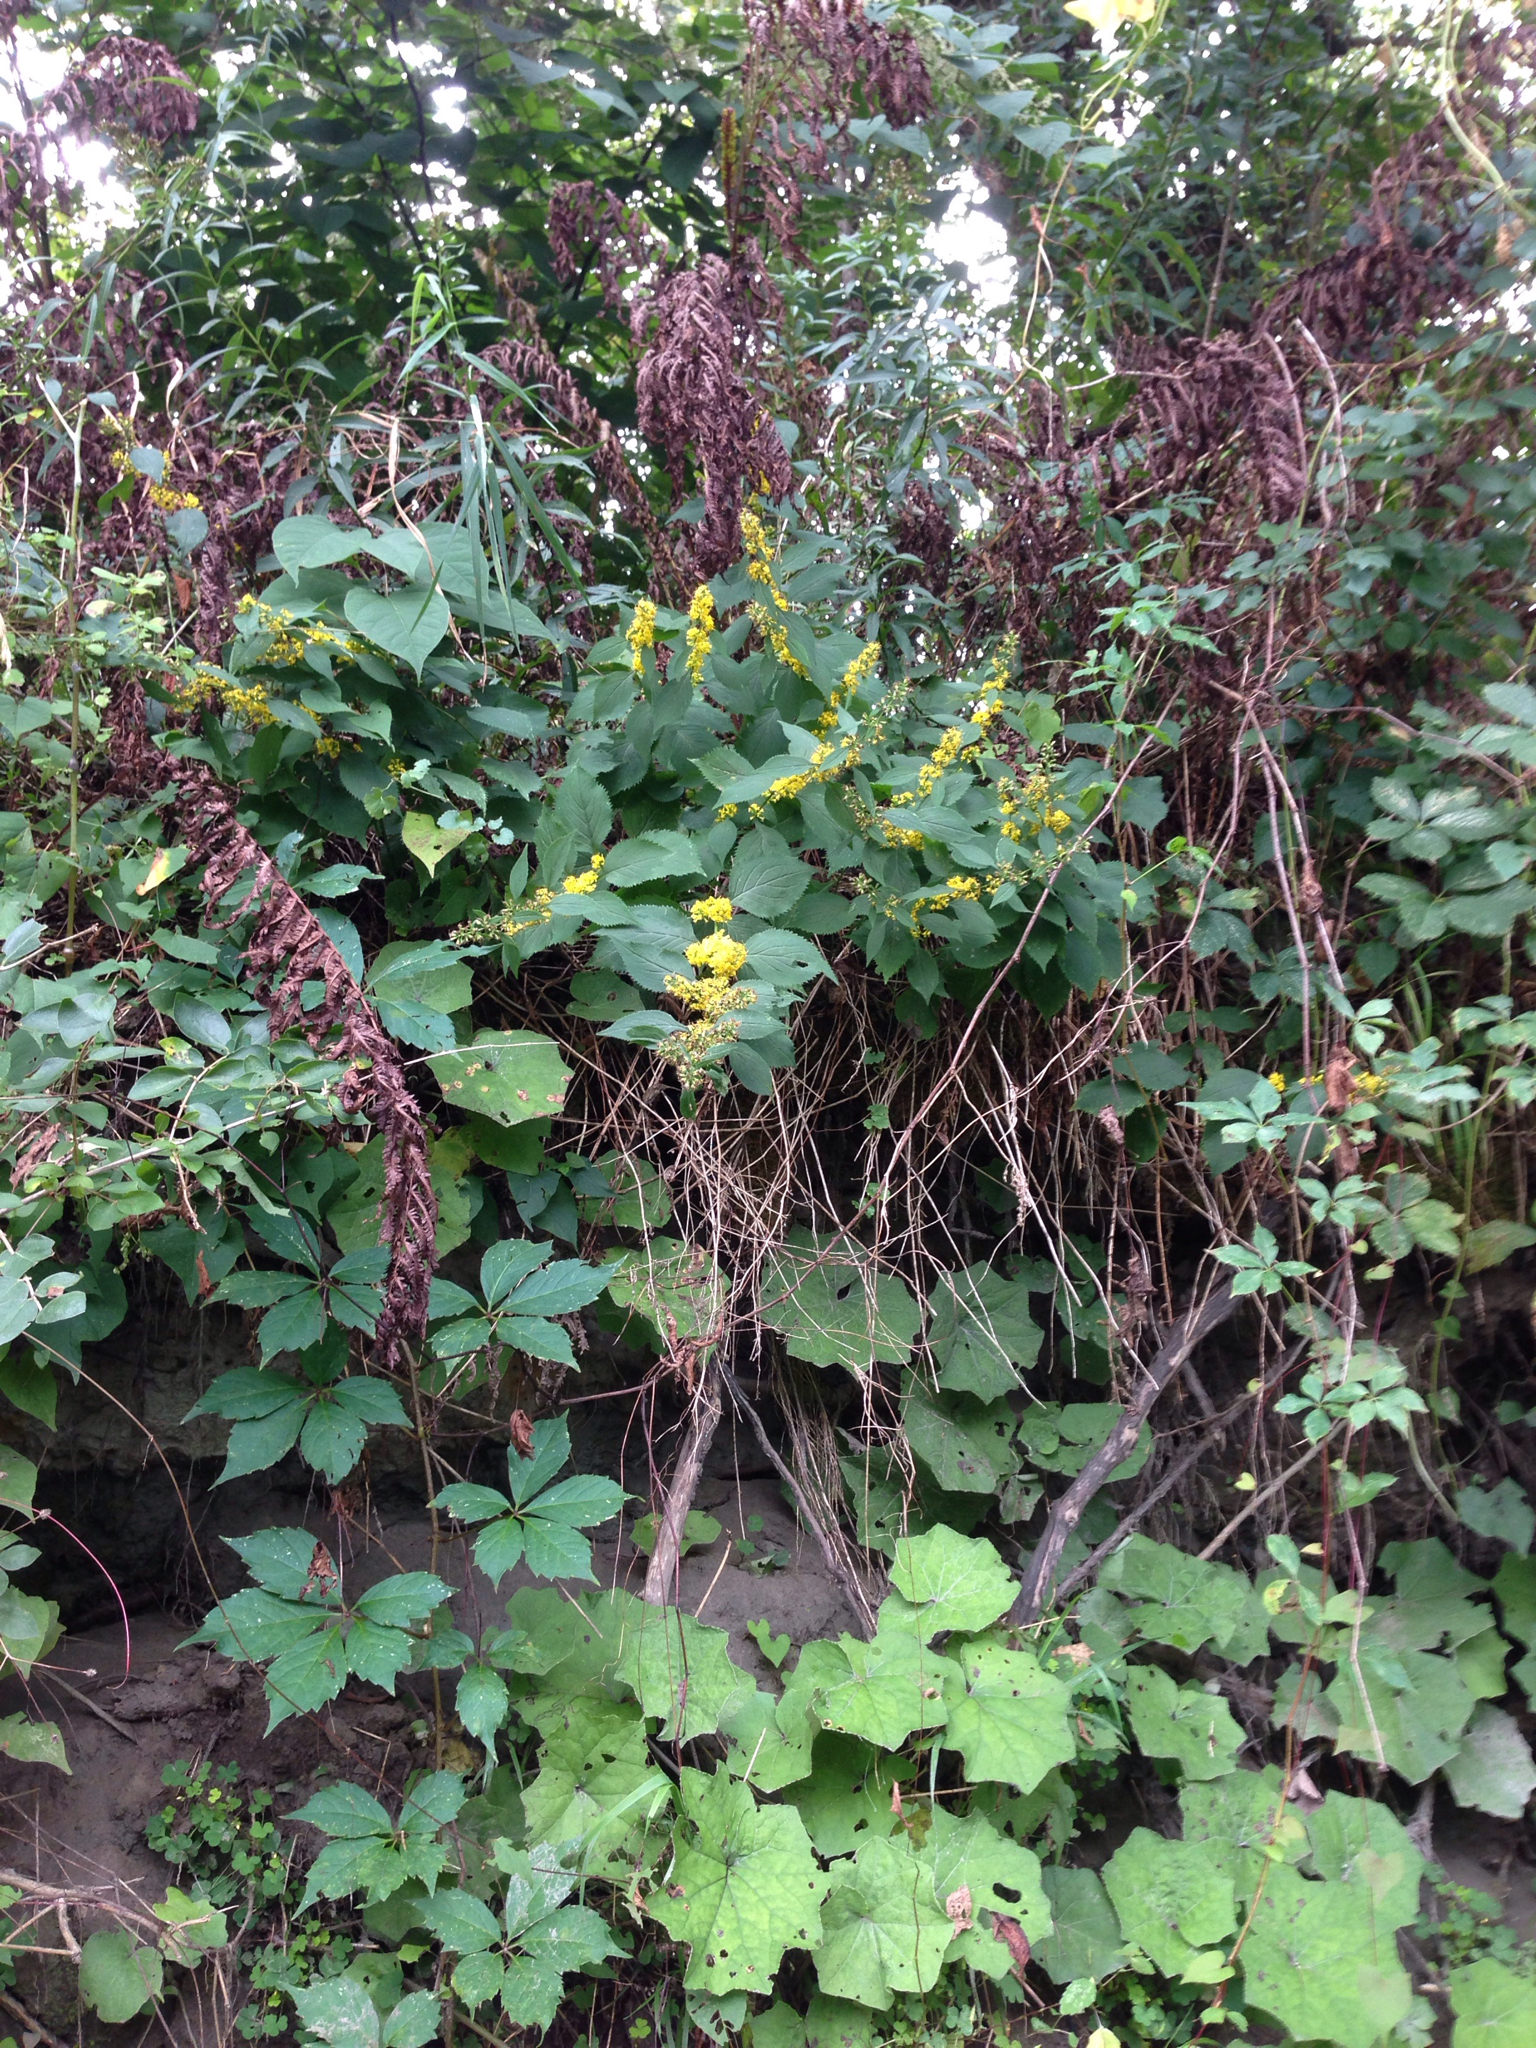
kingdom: Plantae
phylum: Tracheophyta
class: Magnoliopsida
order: Asterales
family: Asteraceae
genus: Solidago
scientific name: Solidago flexicaulis
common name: Zig-zag goldenrod
